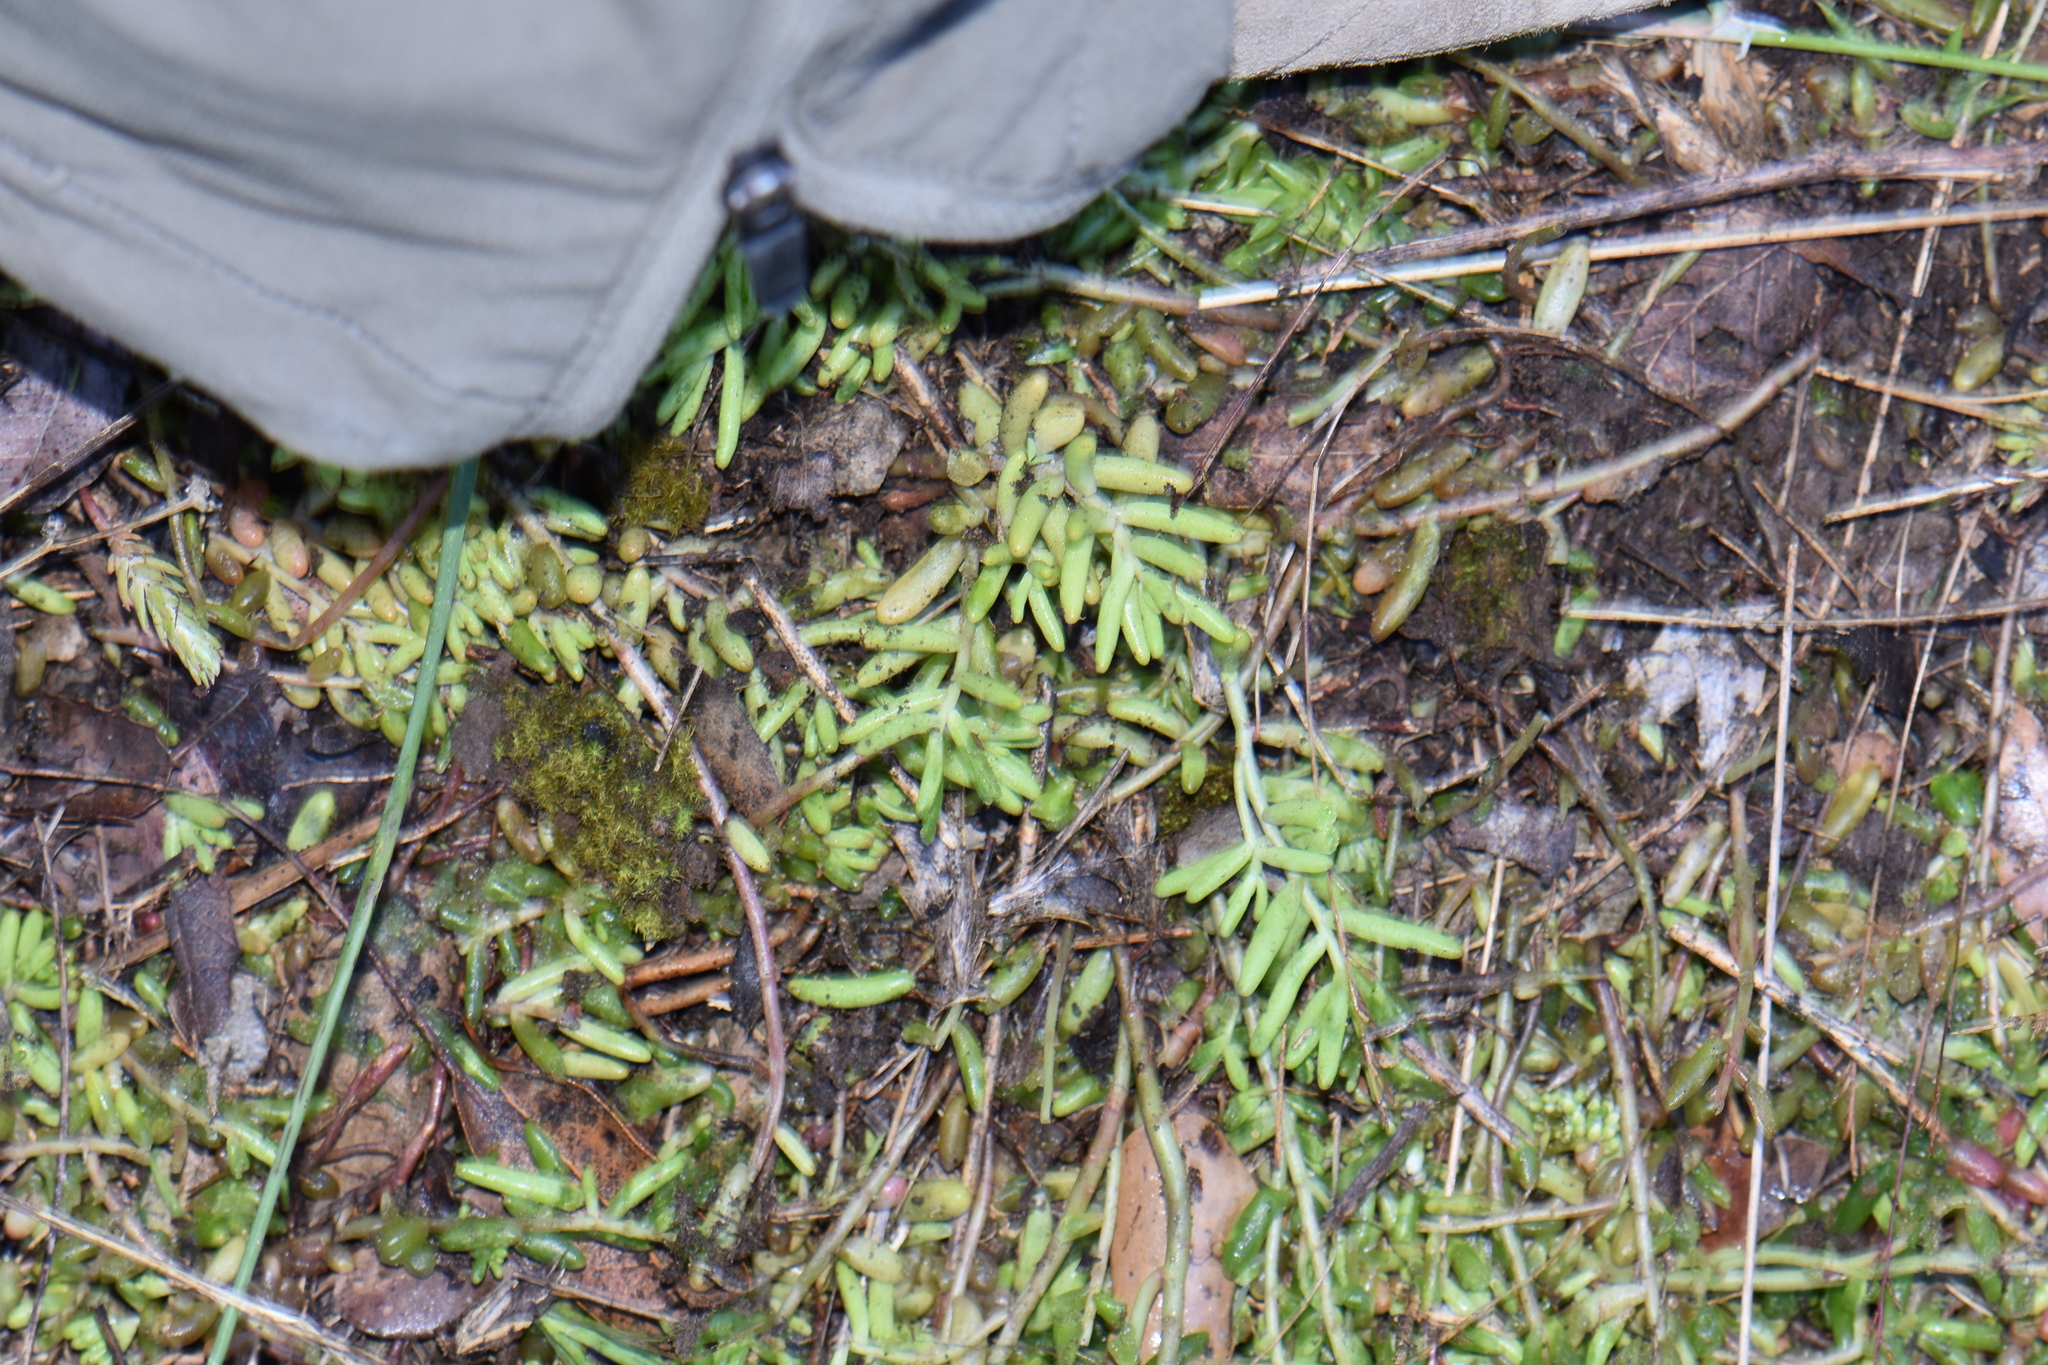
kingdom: Plantae
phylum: Tracheophyta
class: Magnoliopsida
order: Saxifragales
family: Crassulaceae
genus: Petrosedum
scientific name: Petrosedum ochroleucum
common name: European stonecrop
